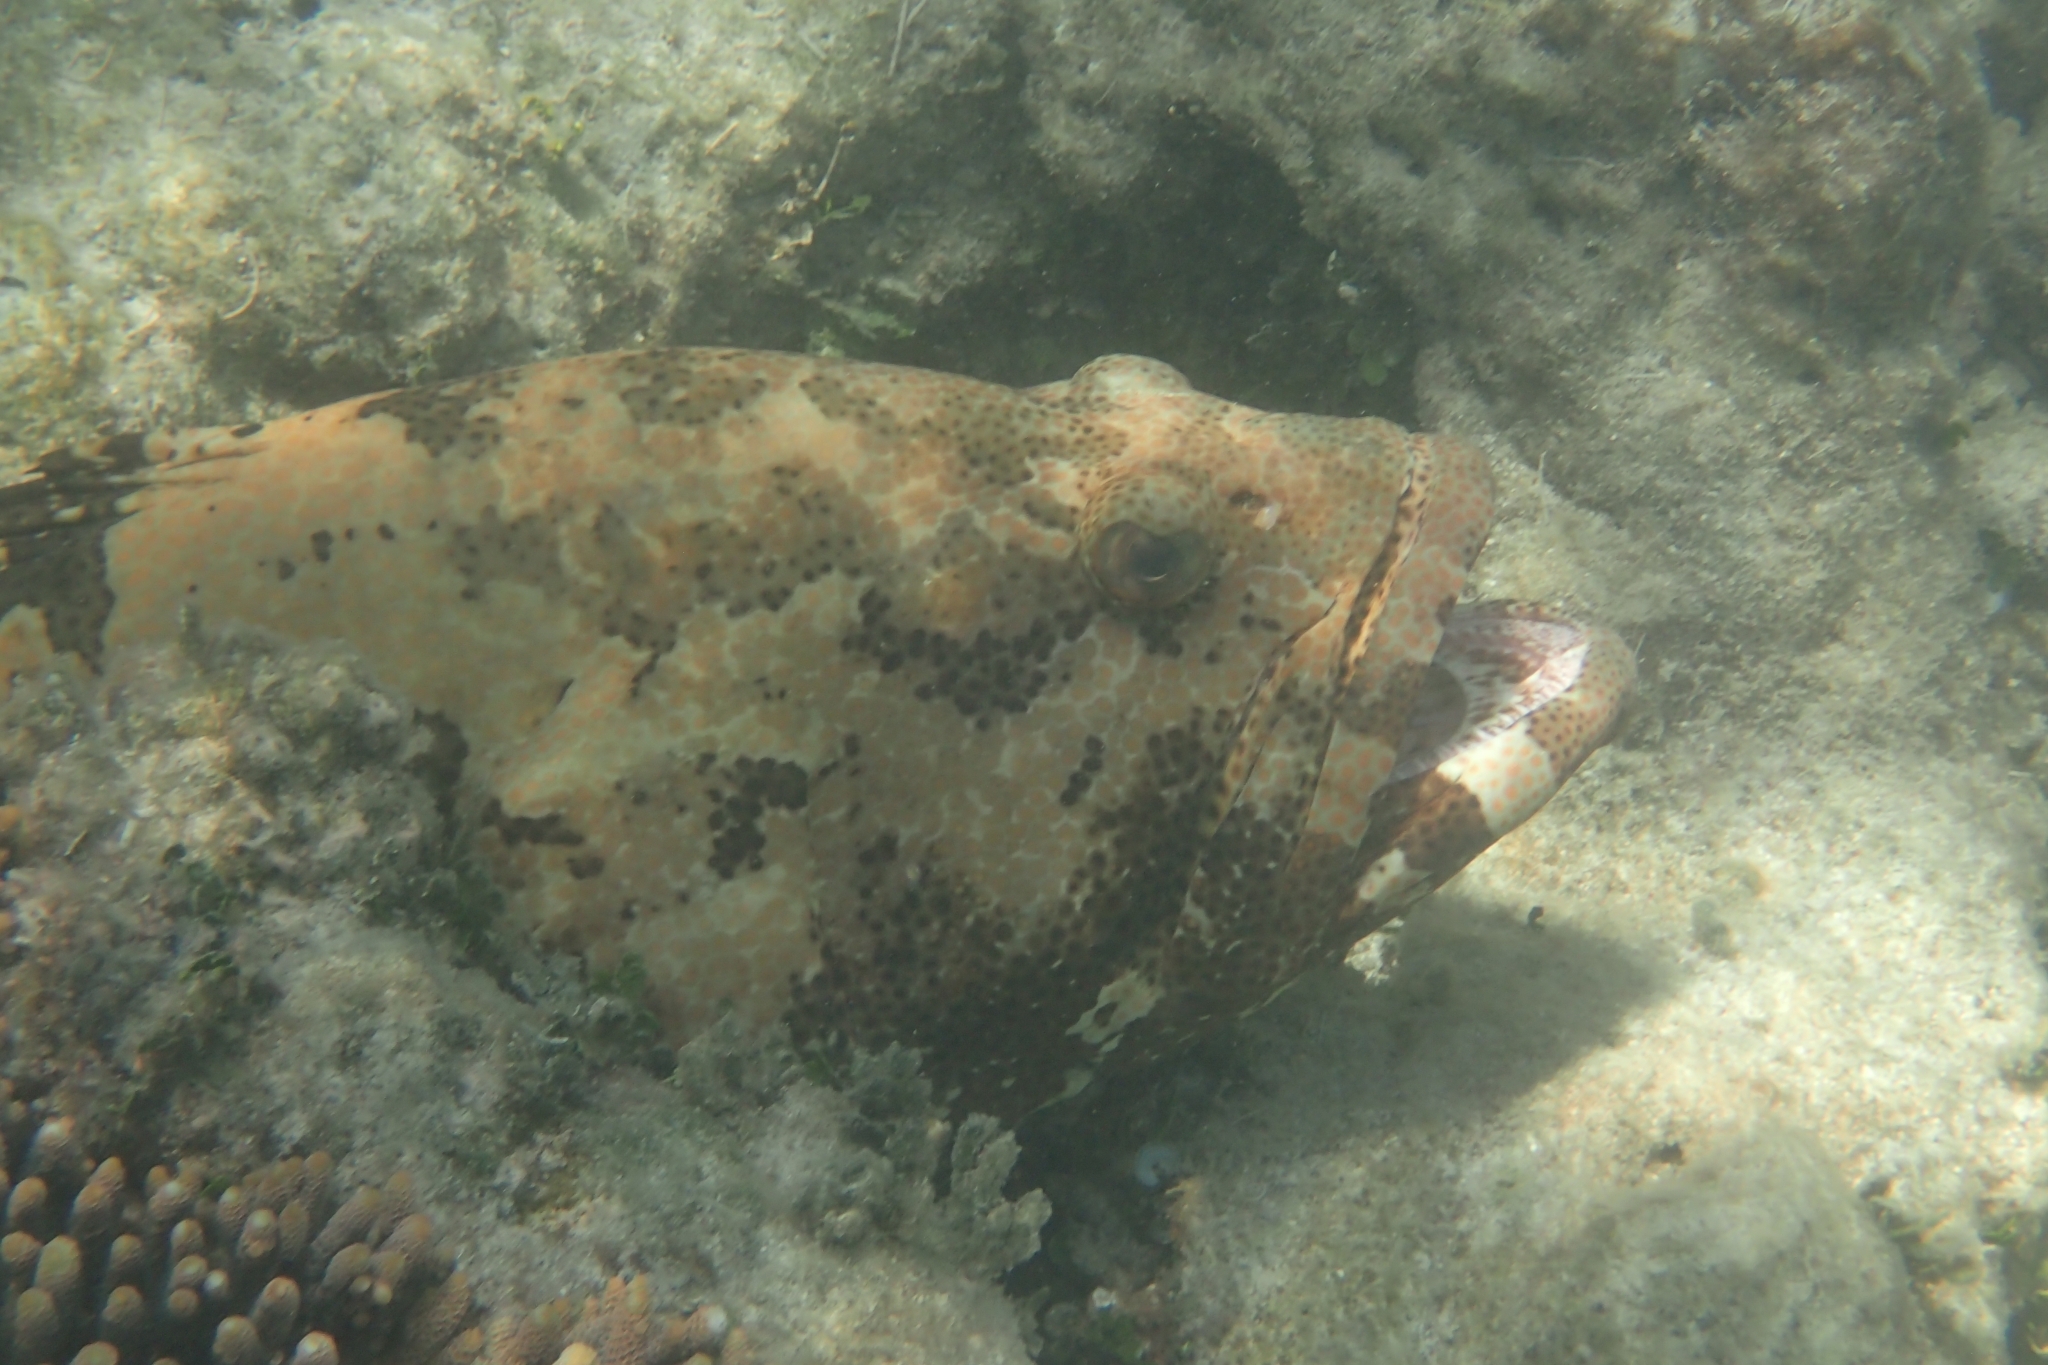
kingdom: Animalia
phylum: Chordata
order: Perciformes
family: Serranidae
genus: Epinephelus
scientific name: Epinephelus fuscoguttatus
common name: Brown-marbled grouper
